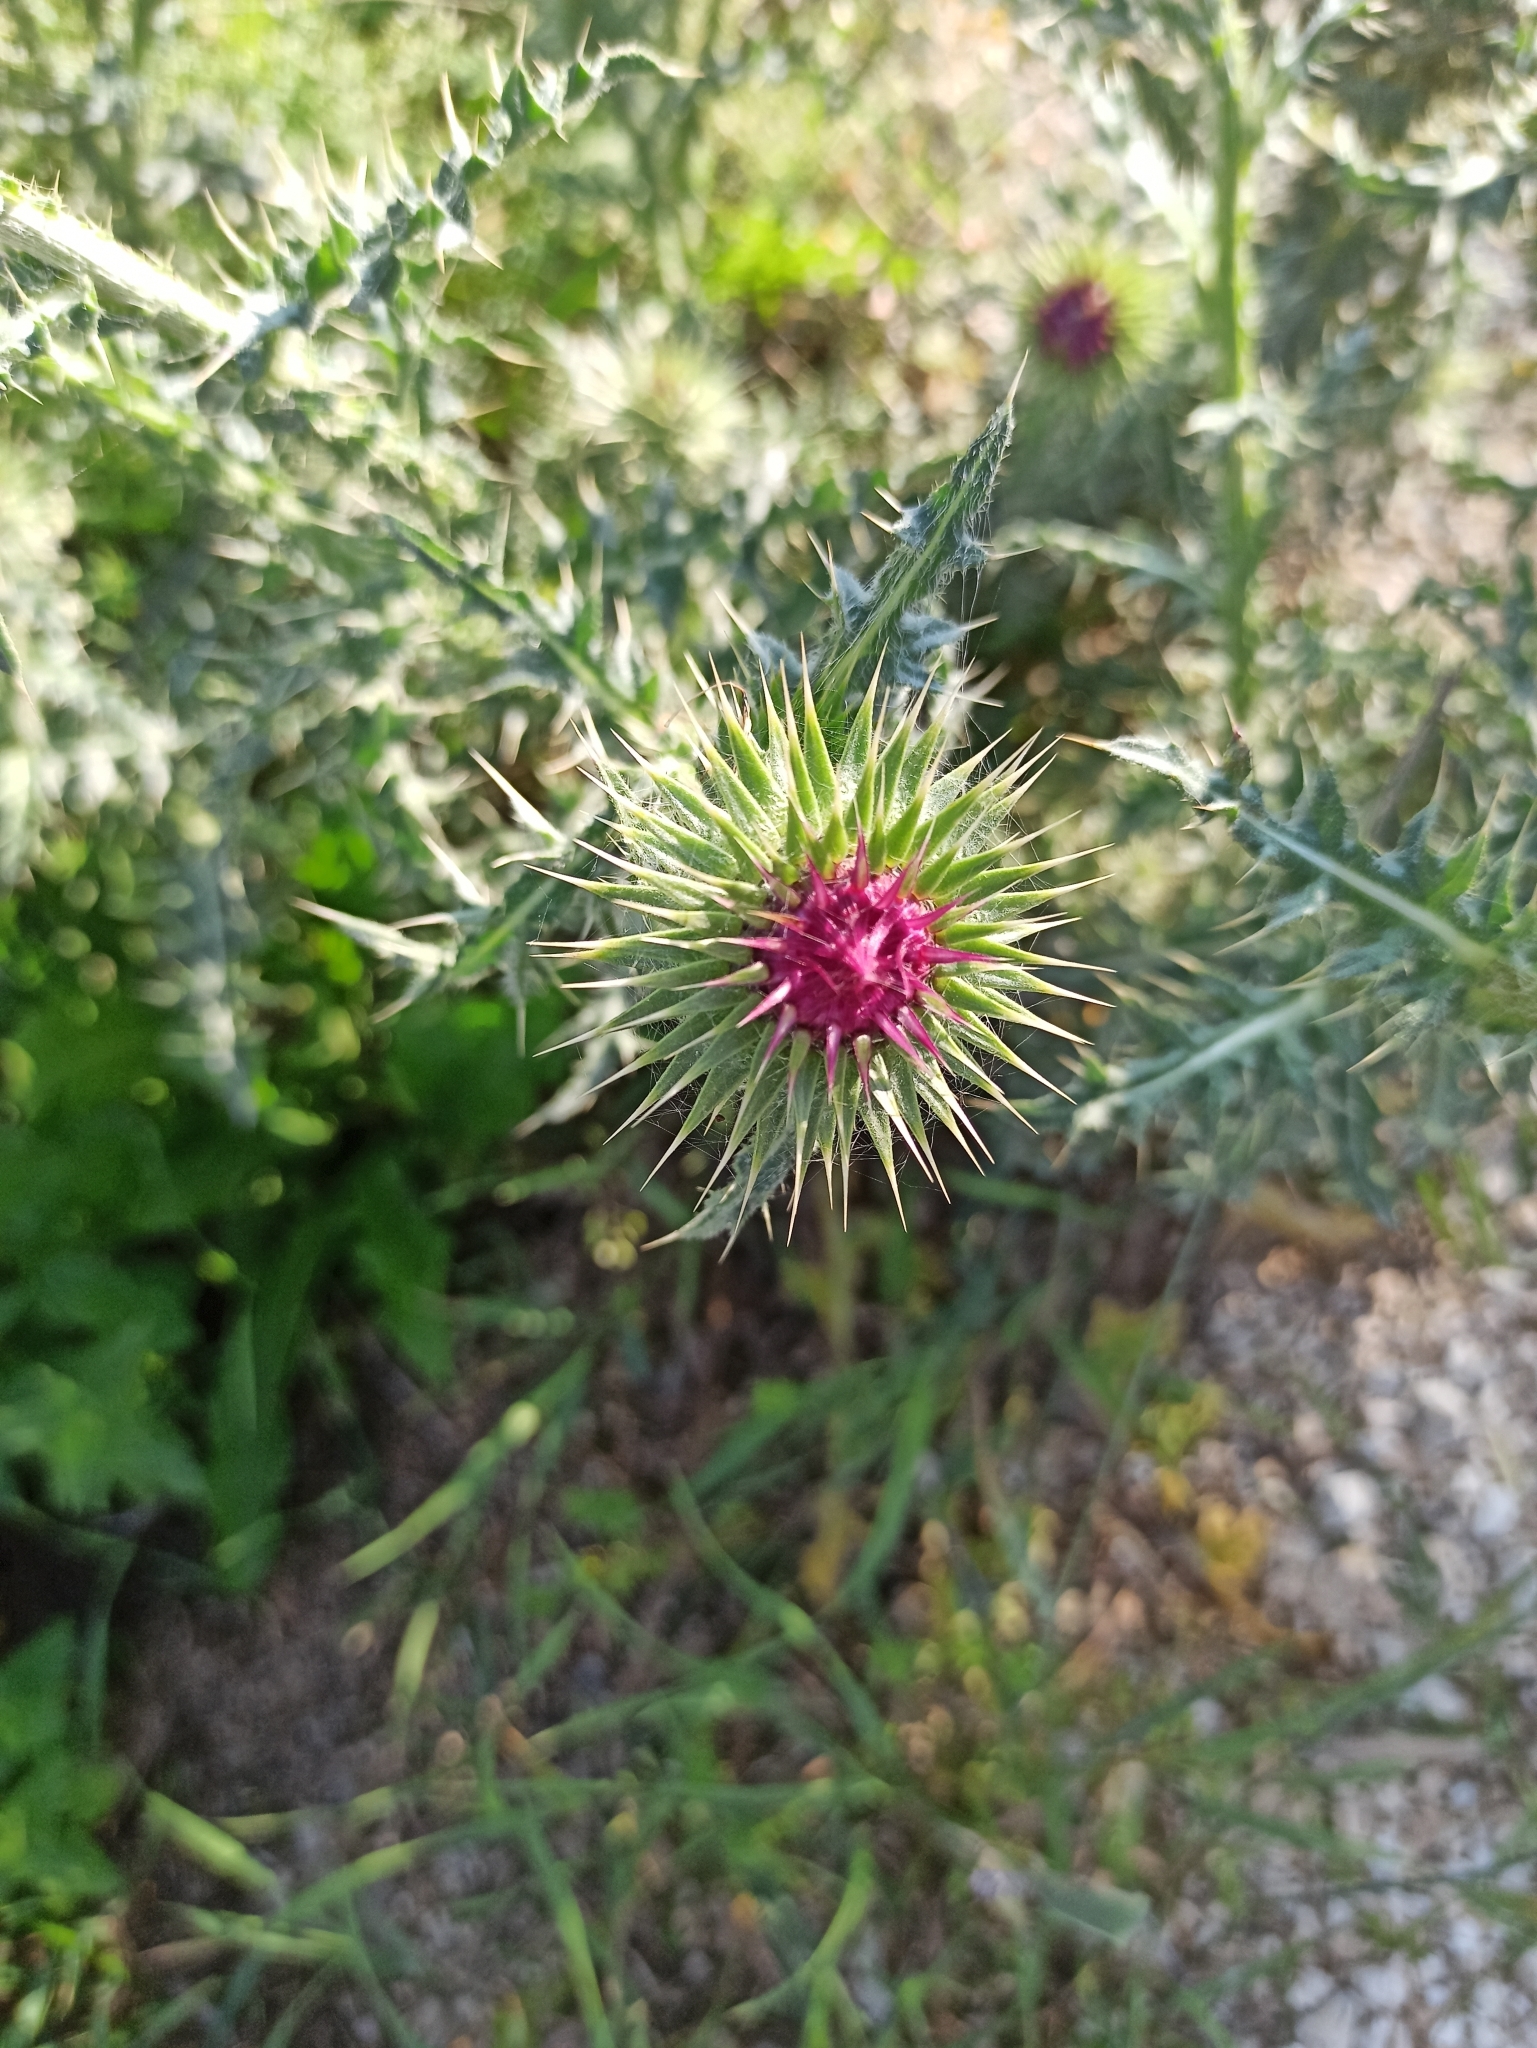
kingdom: Plantae
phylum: Tracheophyta
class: Magnoliopsida
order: Asterales
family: Asteraceae
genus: Carduus
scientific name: Carduus nutans
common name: Musk thistle
